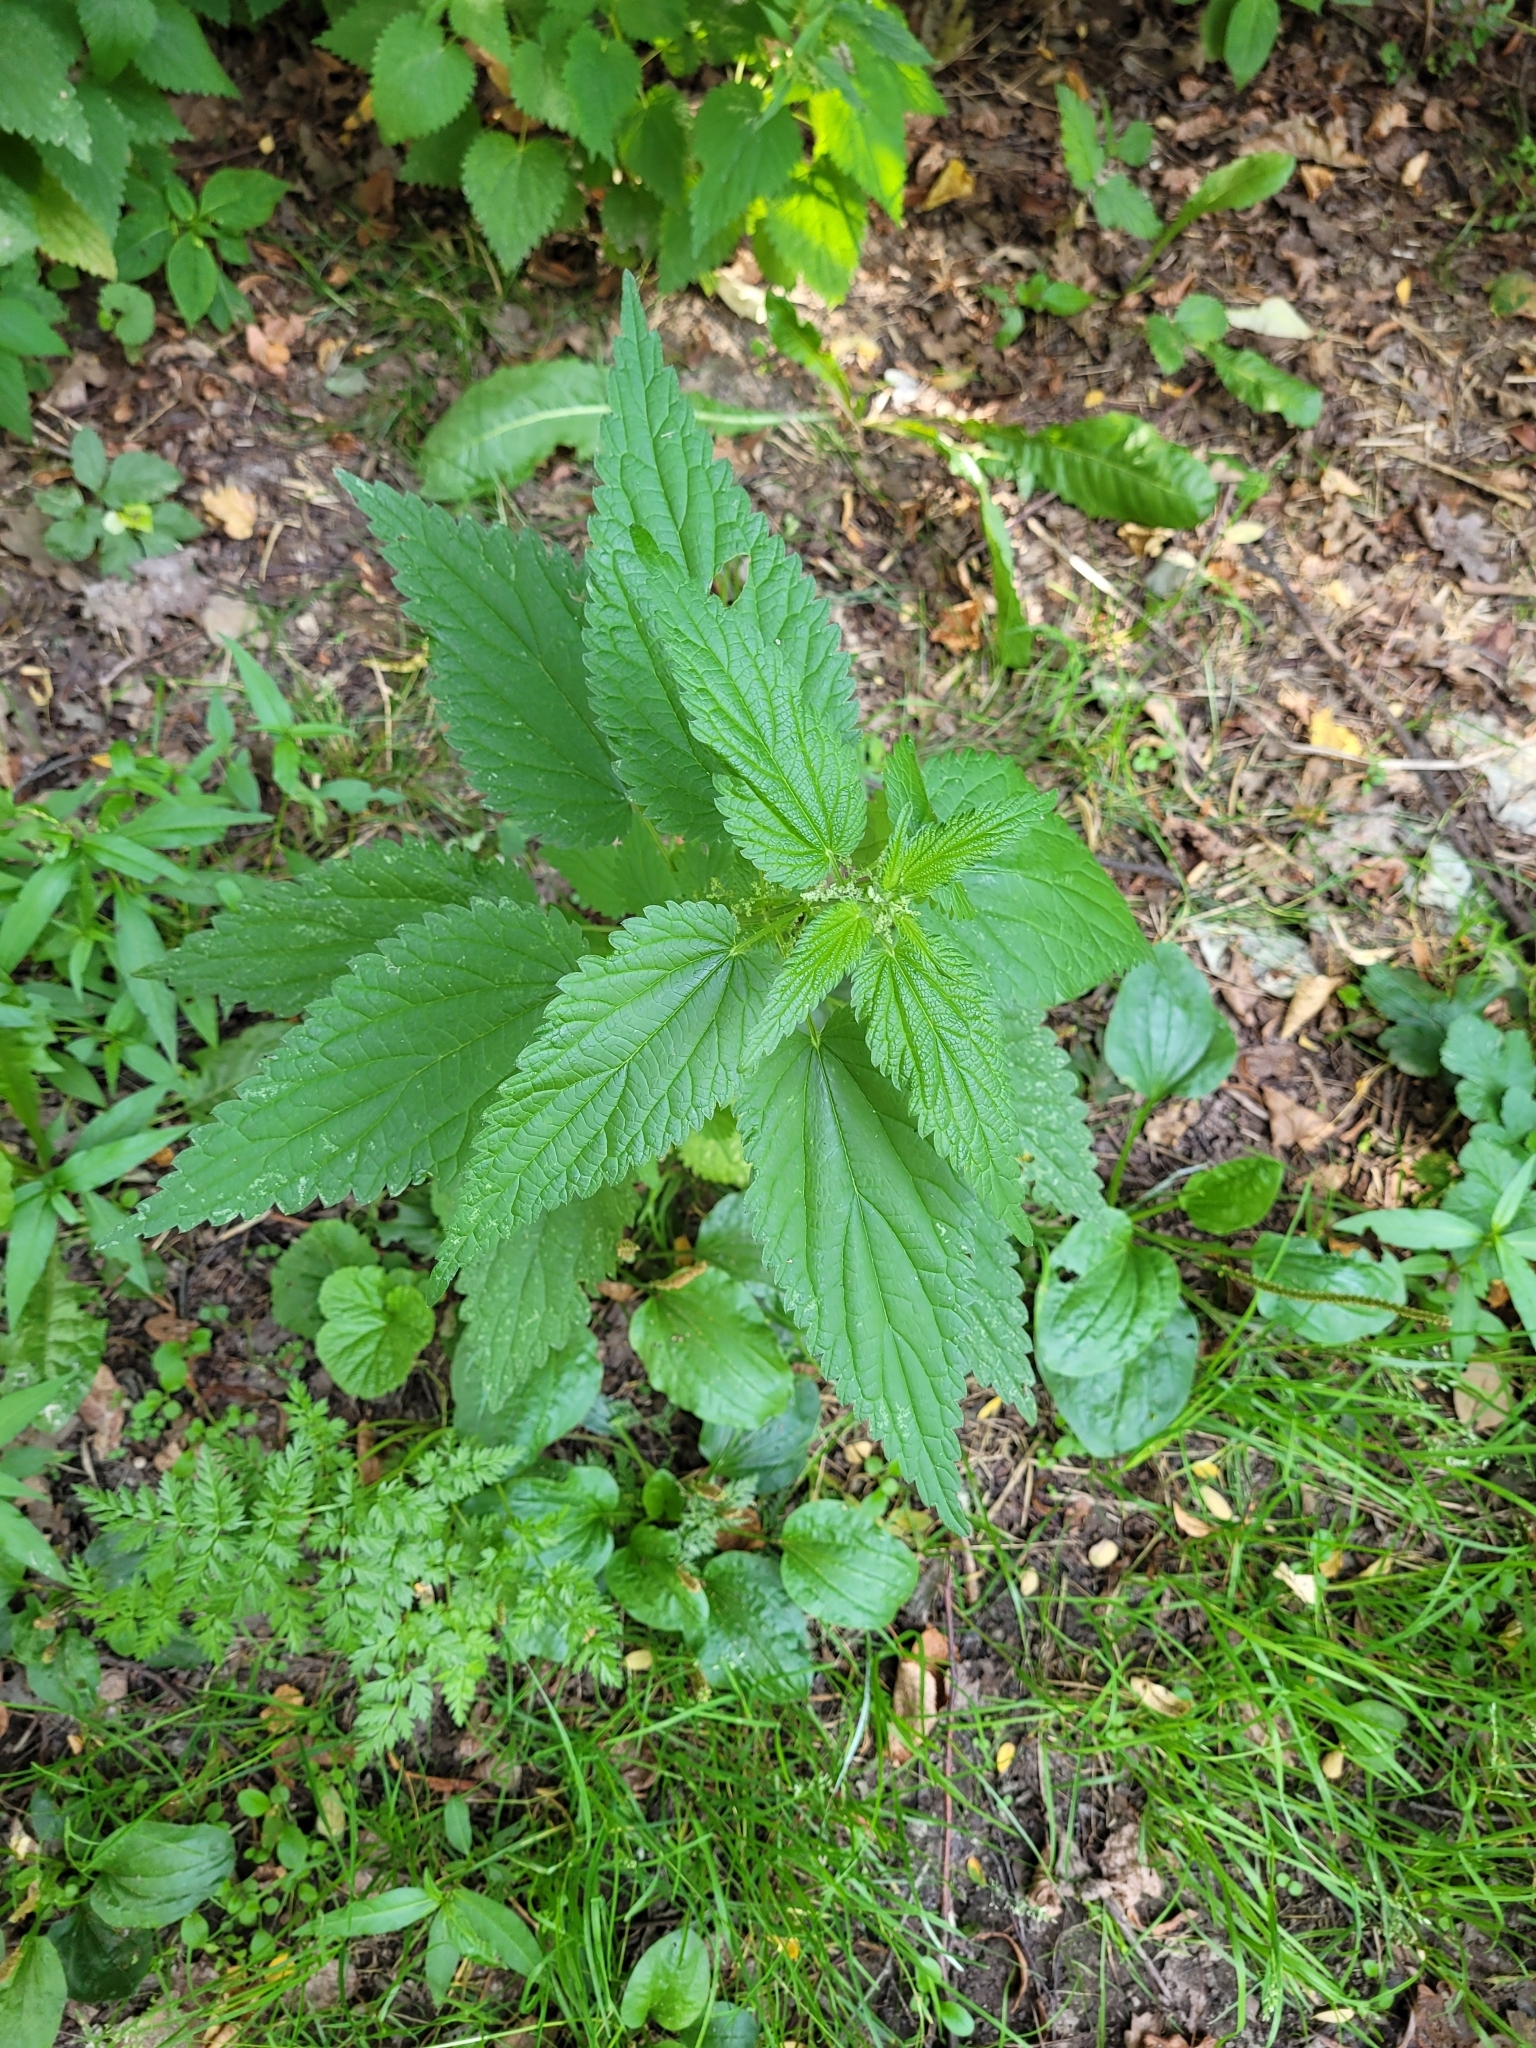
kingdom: Plantae
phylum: Tracheophyta
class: Magnoliopsida
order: Rosales
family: Urticaceae
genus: Urtica
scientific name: Urtica dioica
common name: Common nettle
